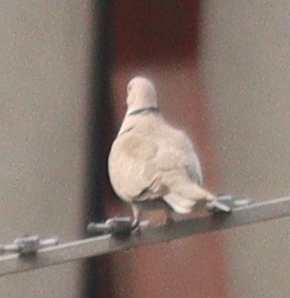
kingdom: Animalia
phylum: Chordata
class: Aves
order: Columbiformes
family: Columbidae
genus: Streptopelia
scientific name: Streptopelia decaocto
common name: Eurasian collared dove
